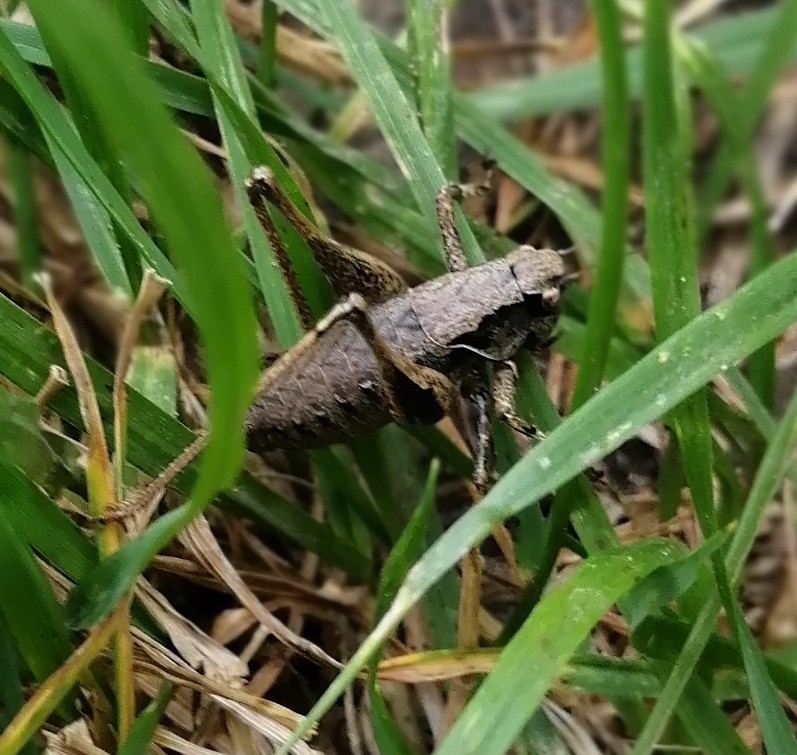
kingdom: Animalia
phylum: Arthropoda
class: Insecta
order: Orthoptera
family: Tettigoniidae
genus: Pholidoptera
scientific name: Pholidoptera griseoaptera
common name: Dark bush-cricket
